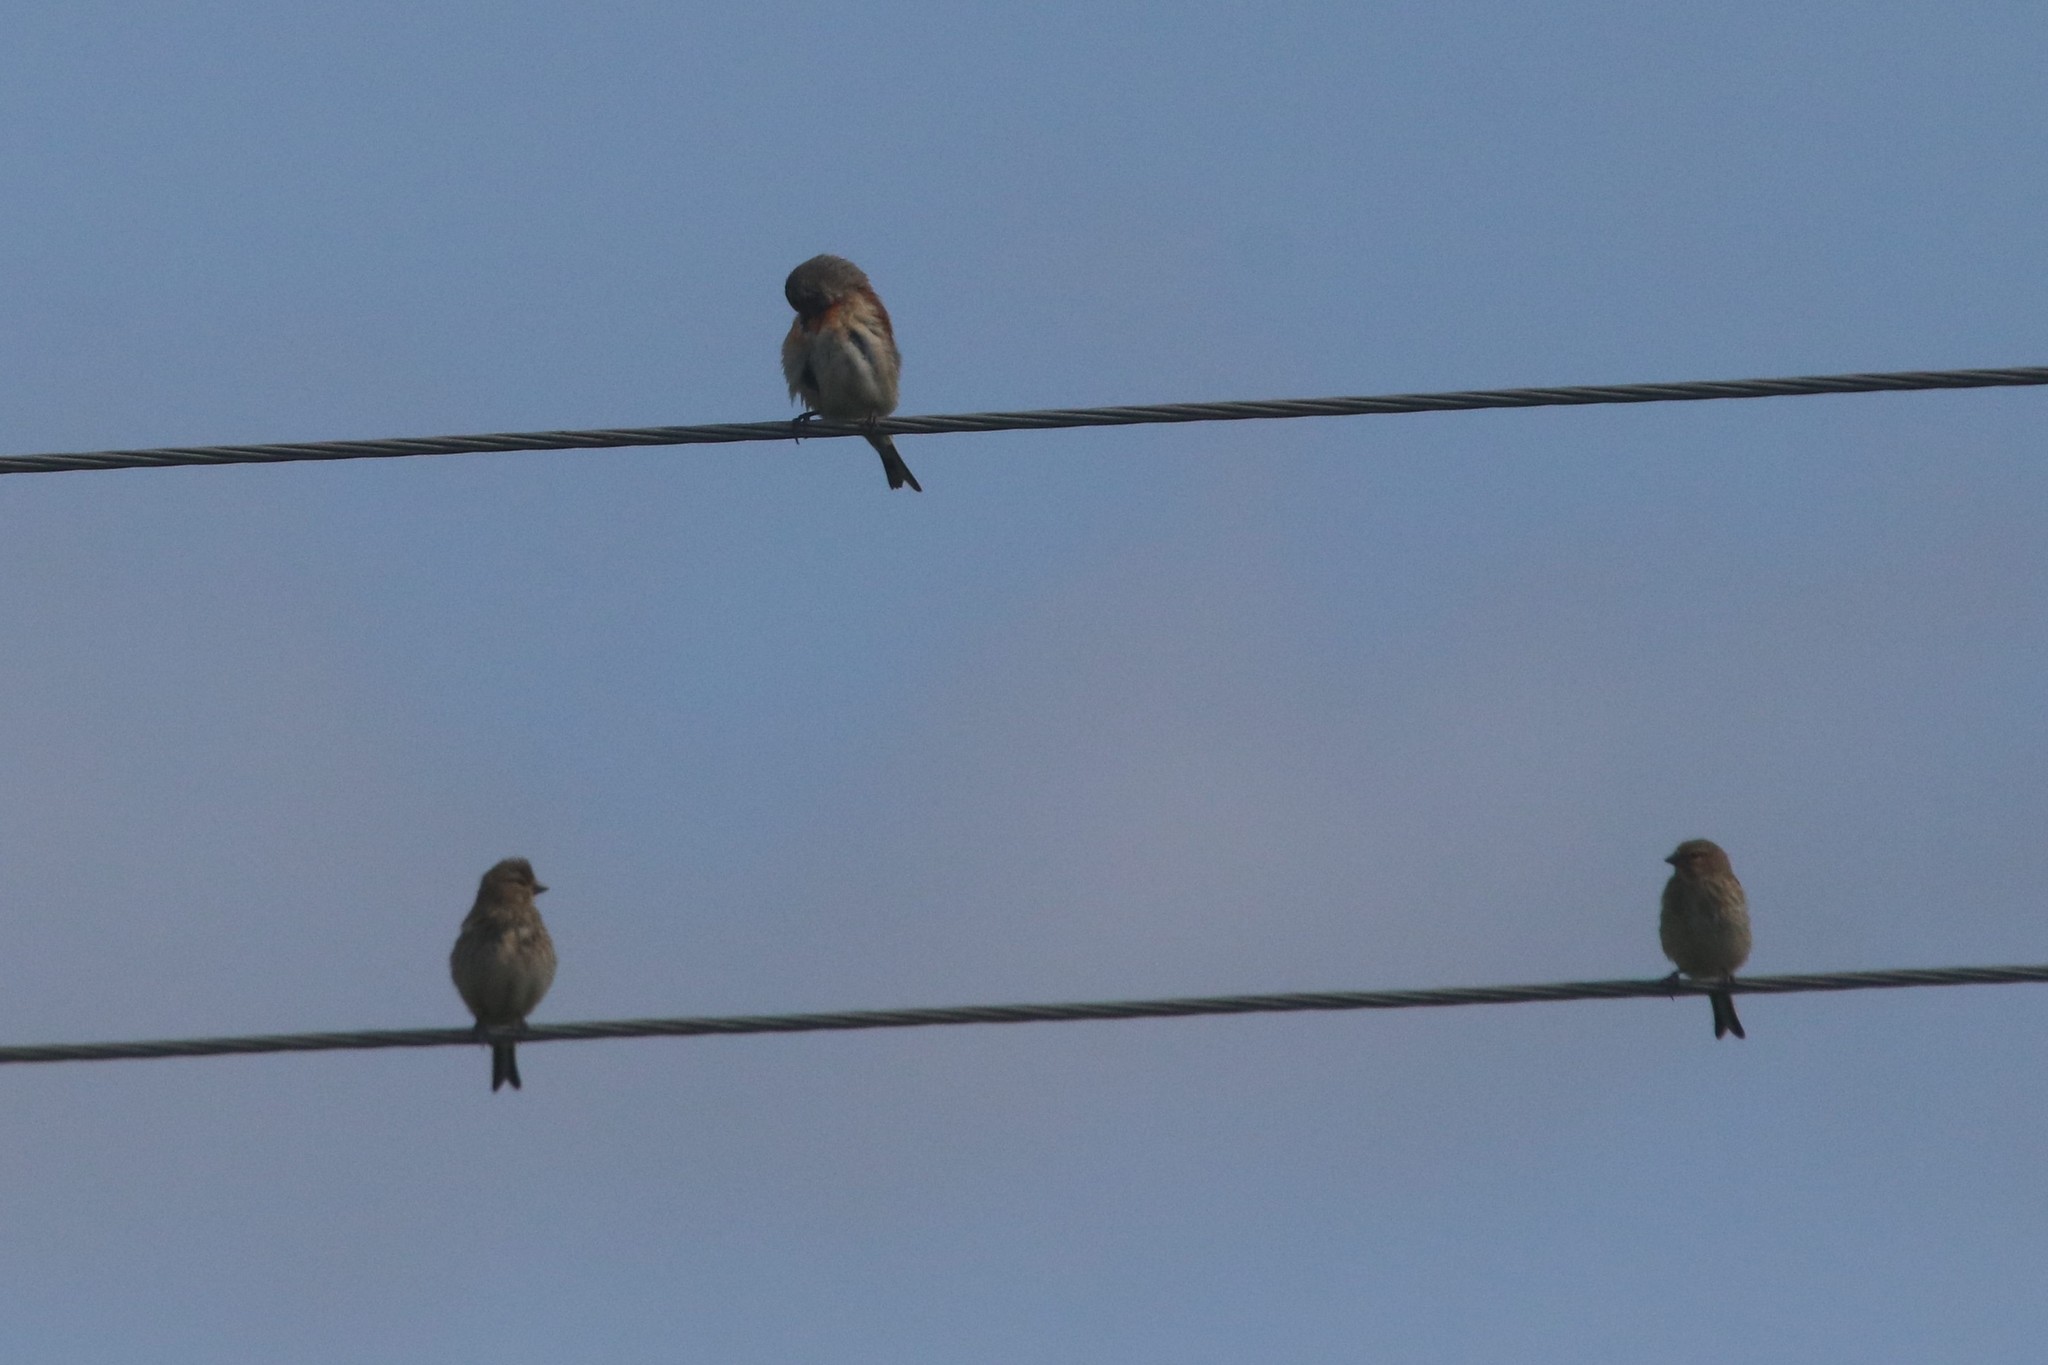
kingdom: Animalia
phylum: Chordata
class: Aves
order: Passeriformes
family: Fringillidae
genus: Linaria
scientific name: Linaria cannabina
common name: Common linnet
